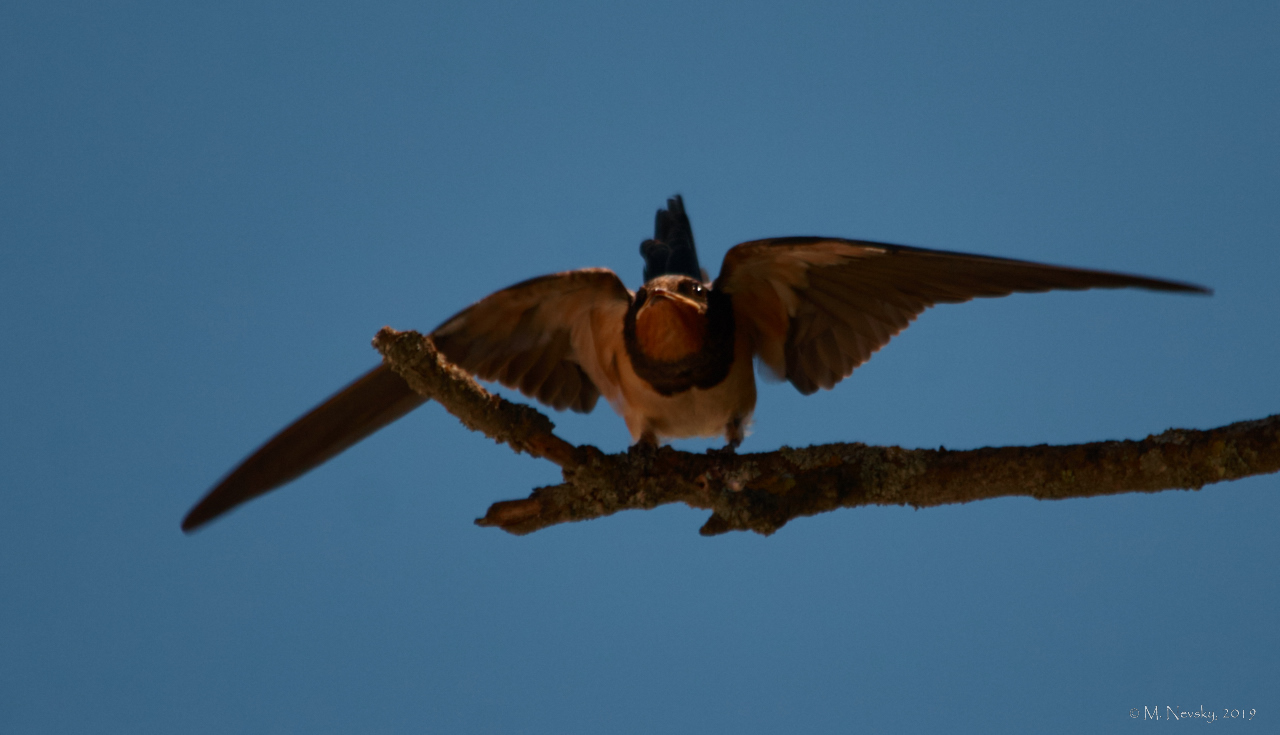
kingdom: Animalia
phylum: Chordata
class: Aves
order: Passeriformes
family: Hirundinidae
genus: Hirundo
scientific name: Hirundo rustica
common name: Barn swallow
